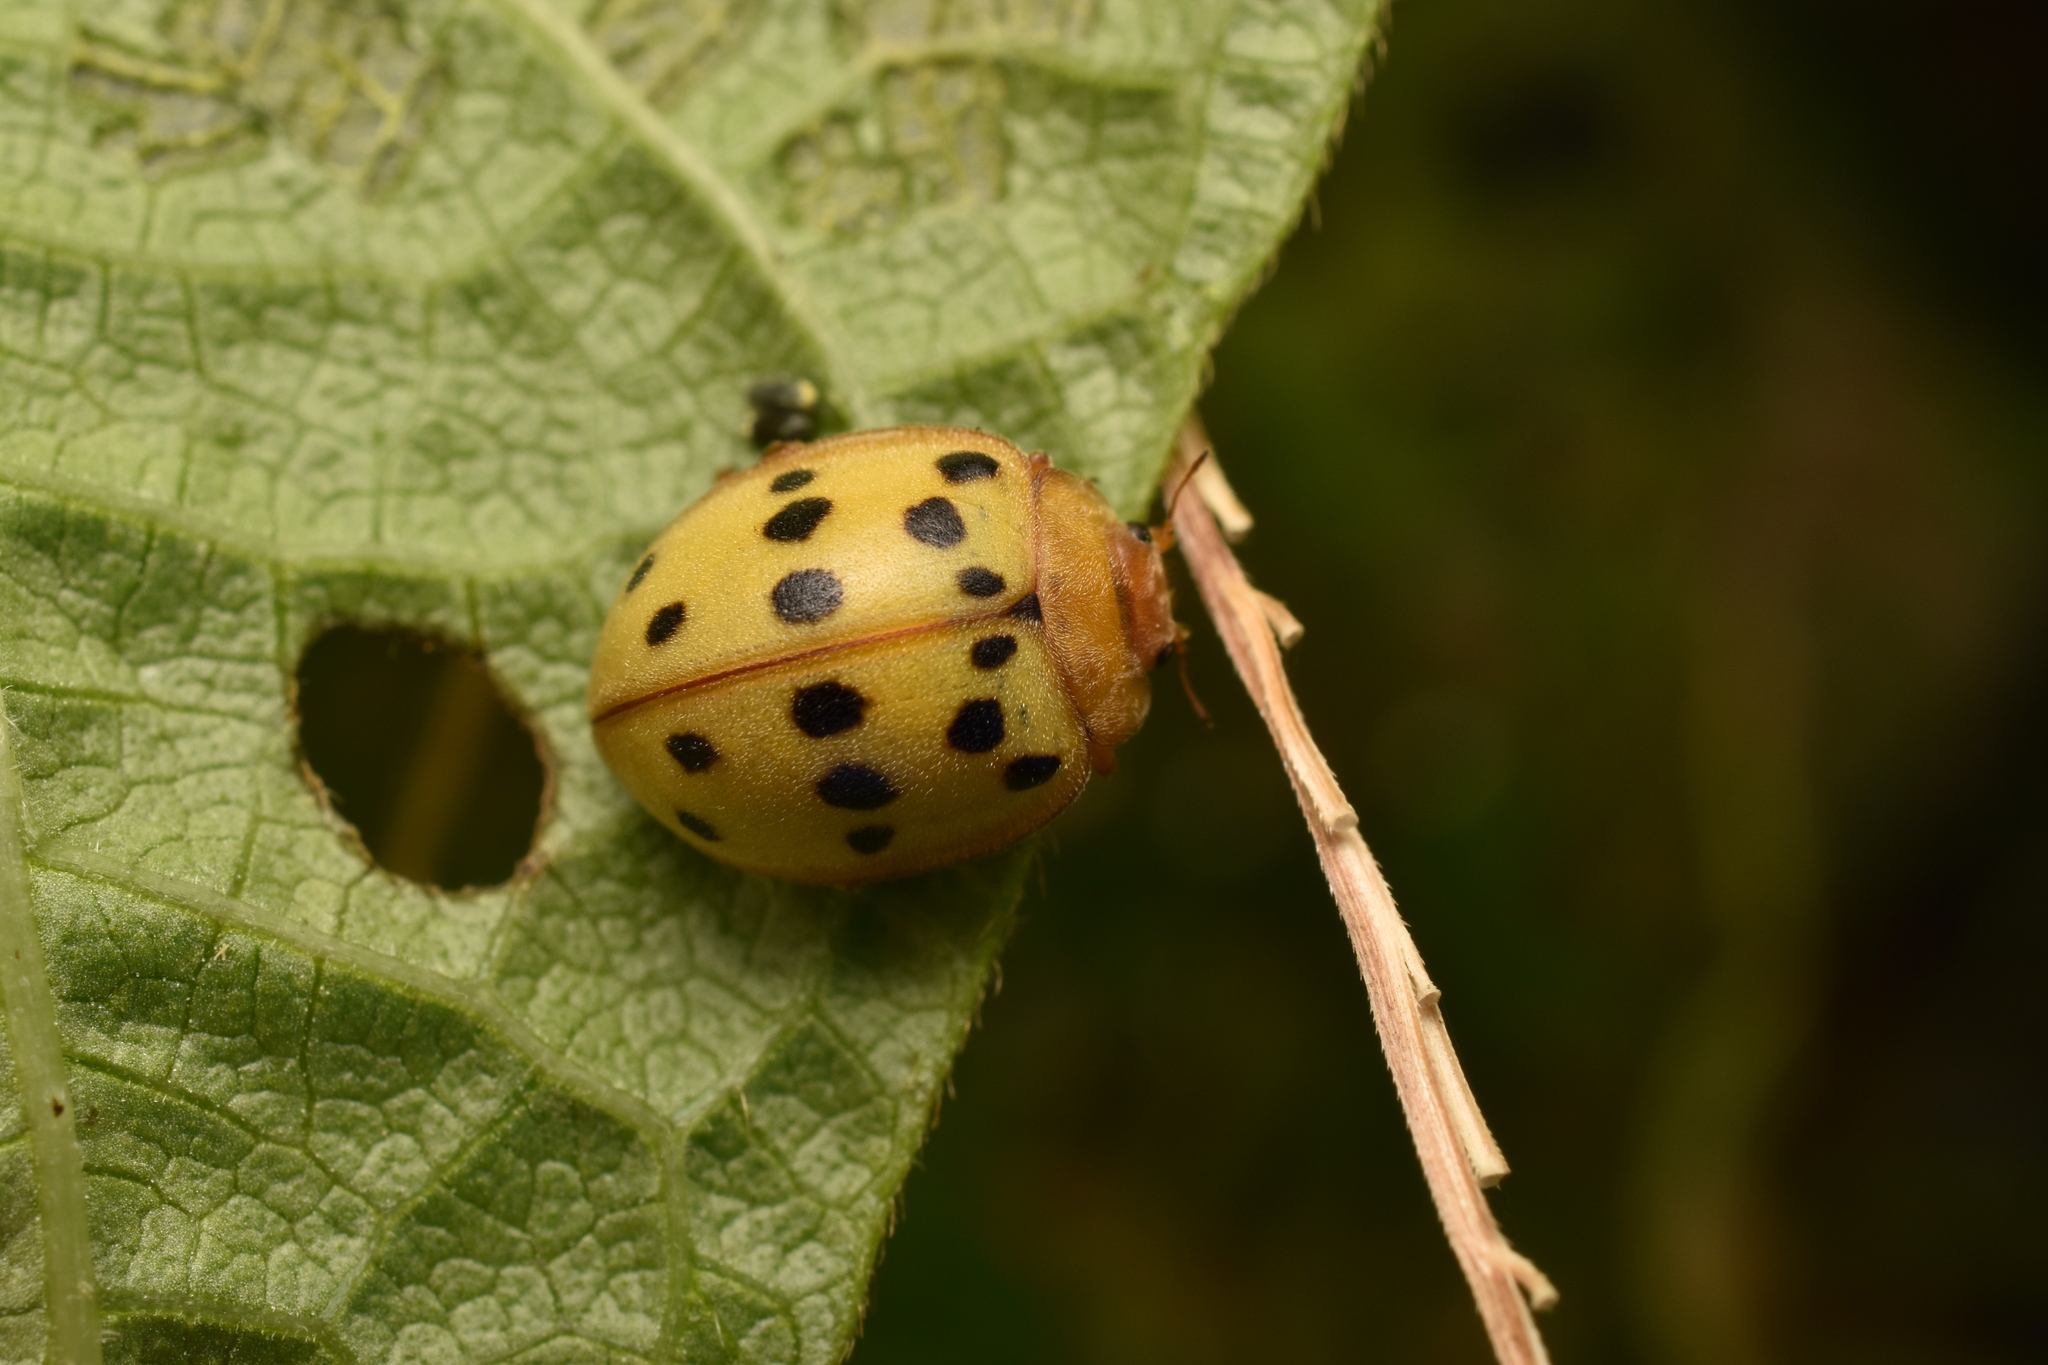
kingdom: Animalia
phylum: Arthropoda
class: Insecta
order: Coleoptera
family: Coccinellidae
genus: Epilachna
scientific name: Epilachna varivestis
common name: Ladybird beetle
